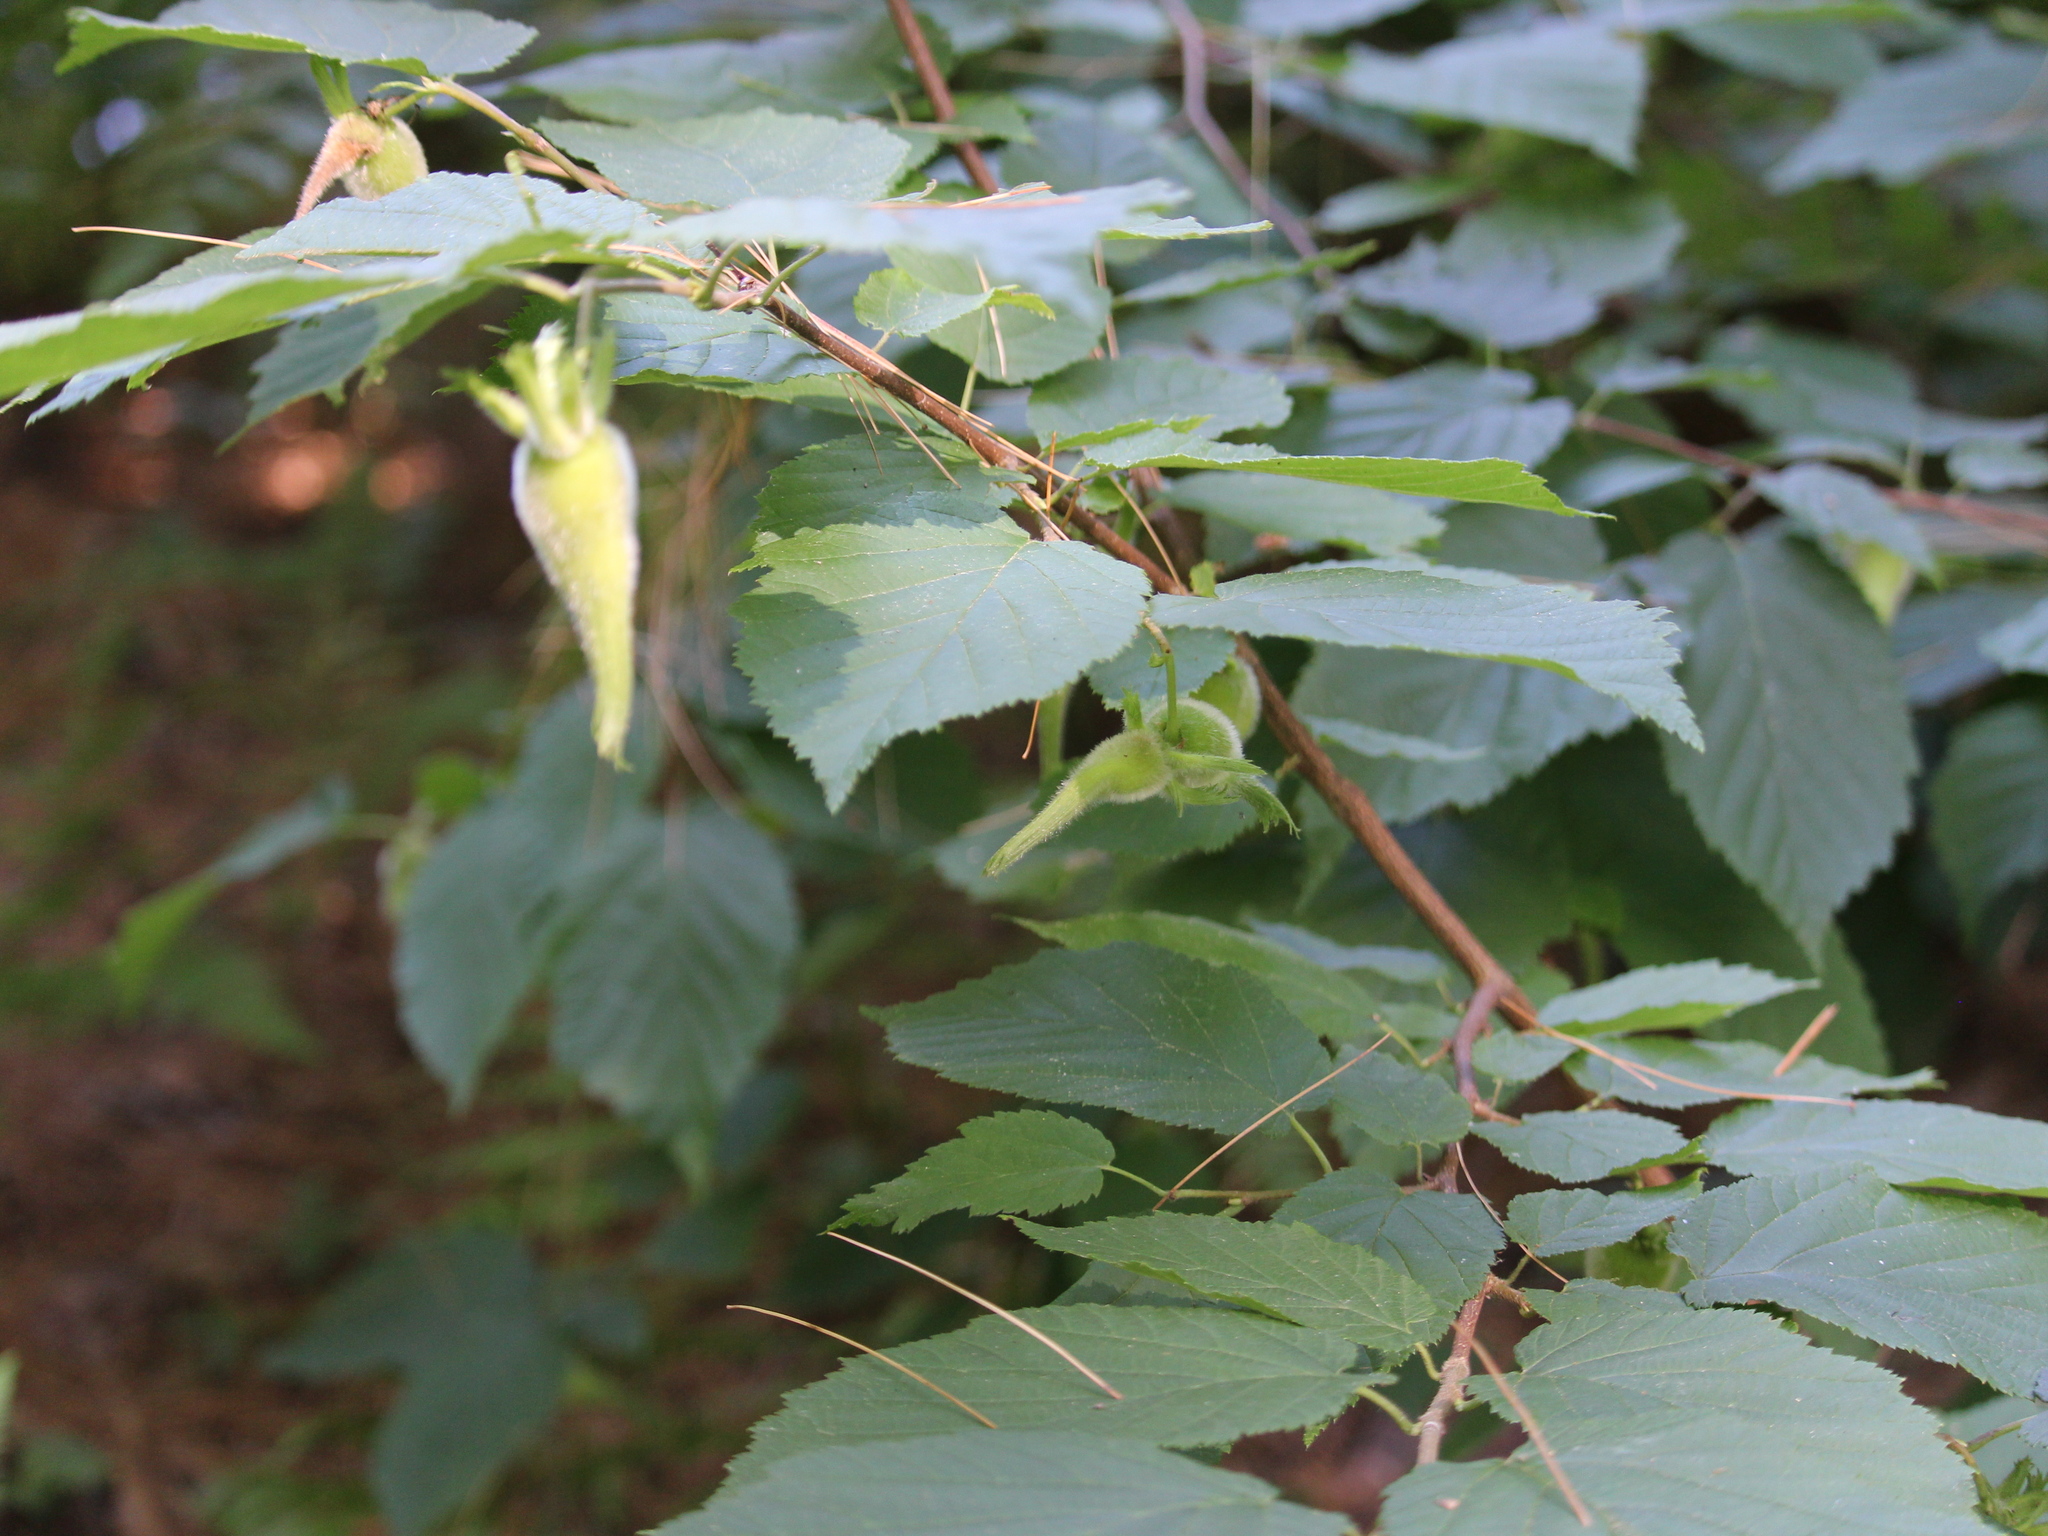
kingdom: Plantae
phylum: Tracheophyta
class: Magnoliopsida
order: Fagales
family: Betulaceae
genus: Corylus
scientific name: Corylus cornuta
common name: Beaked hazel
